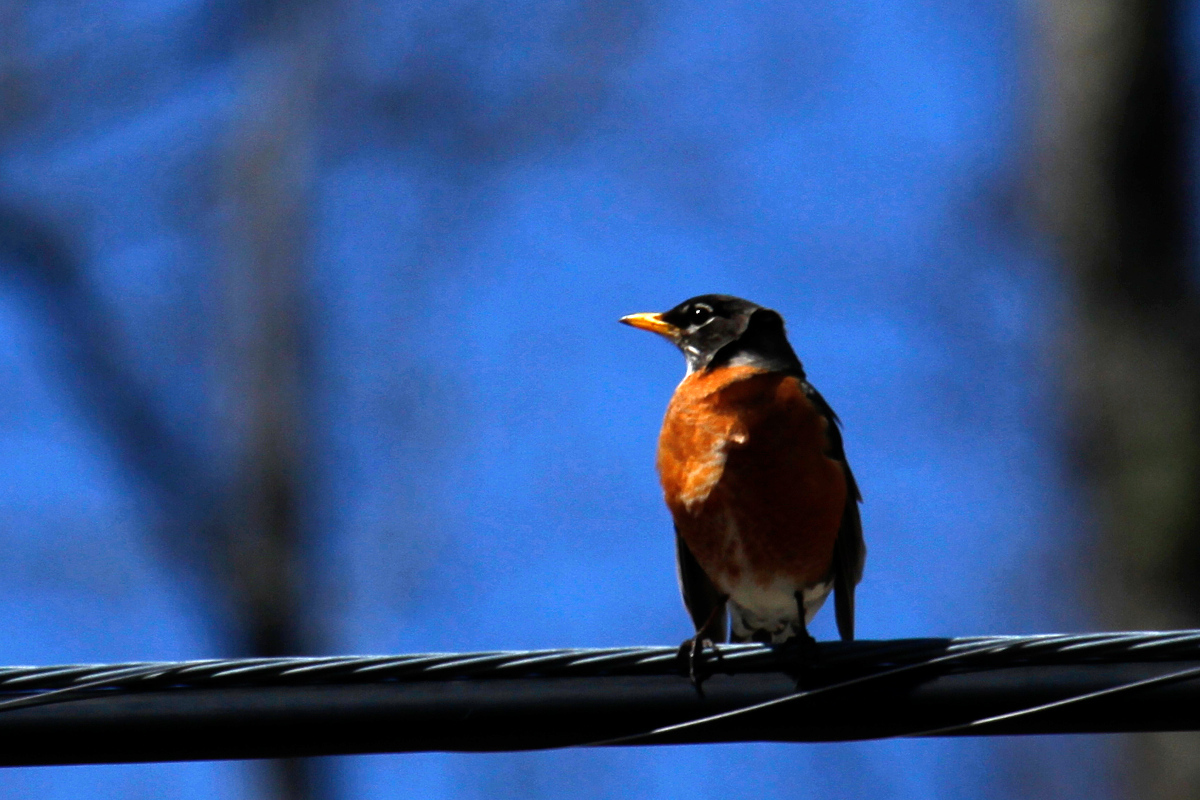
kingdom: Animalia
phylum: Chordata
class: Aves
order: Passeriformes
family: Turdidae
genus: Turdus
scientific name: Turdus migratorius
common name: American robin
